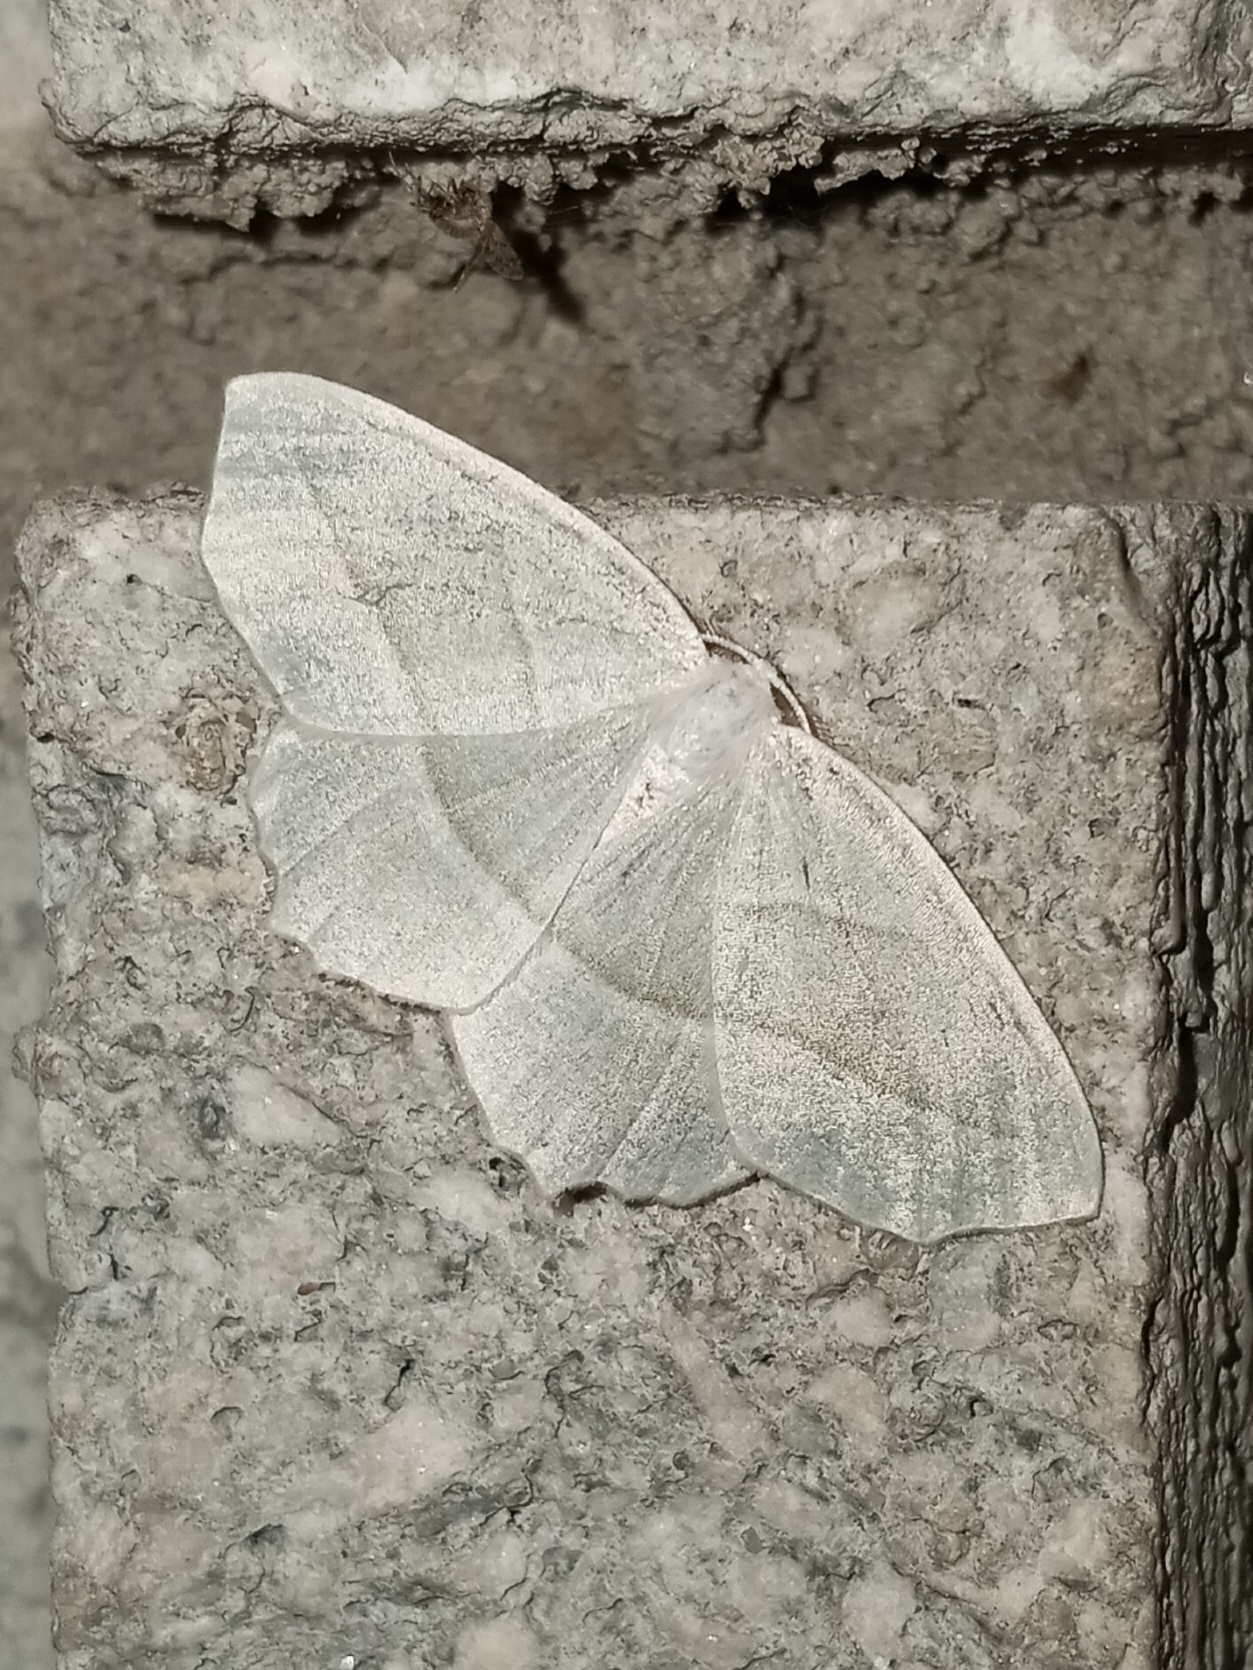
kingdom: Animalia
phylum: Arthropoda
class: Insecta
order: Lepidoptera
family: Geometridae
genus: Campaea
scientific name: Campaea perlata
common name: Fringed looper
